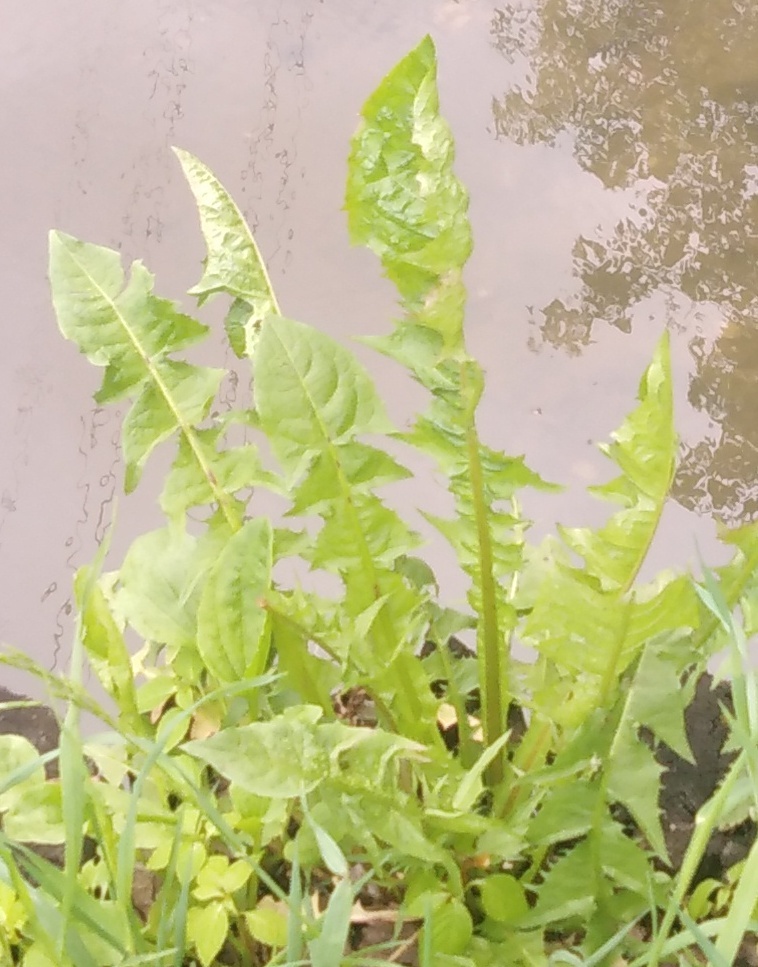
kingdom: Plantae
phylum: Tracheophyta
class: Magnoliopsida
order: Asterales
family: Asteraceae
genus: Taraxacum
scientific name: Taraxacum officinale
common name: Common dandelion
